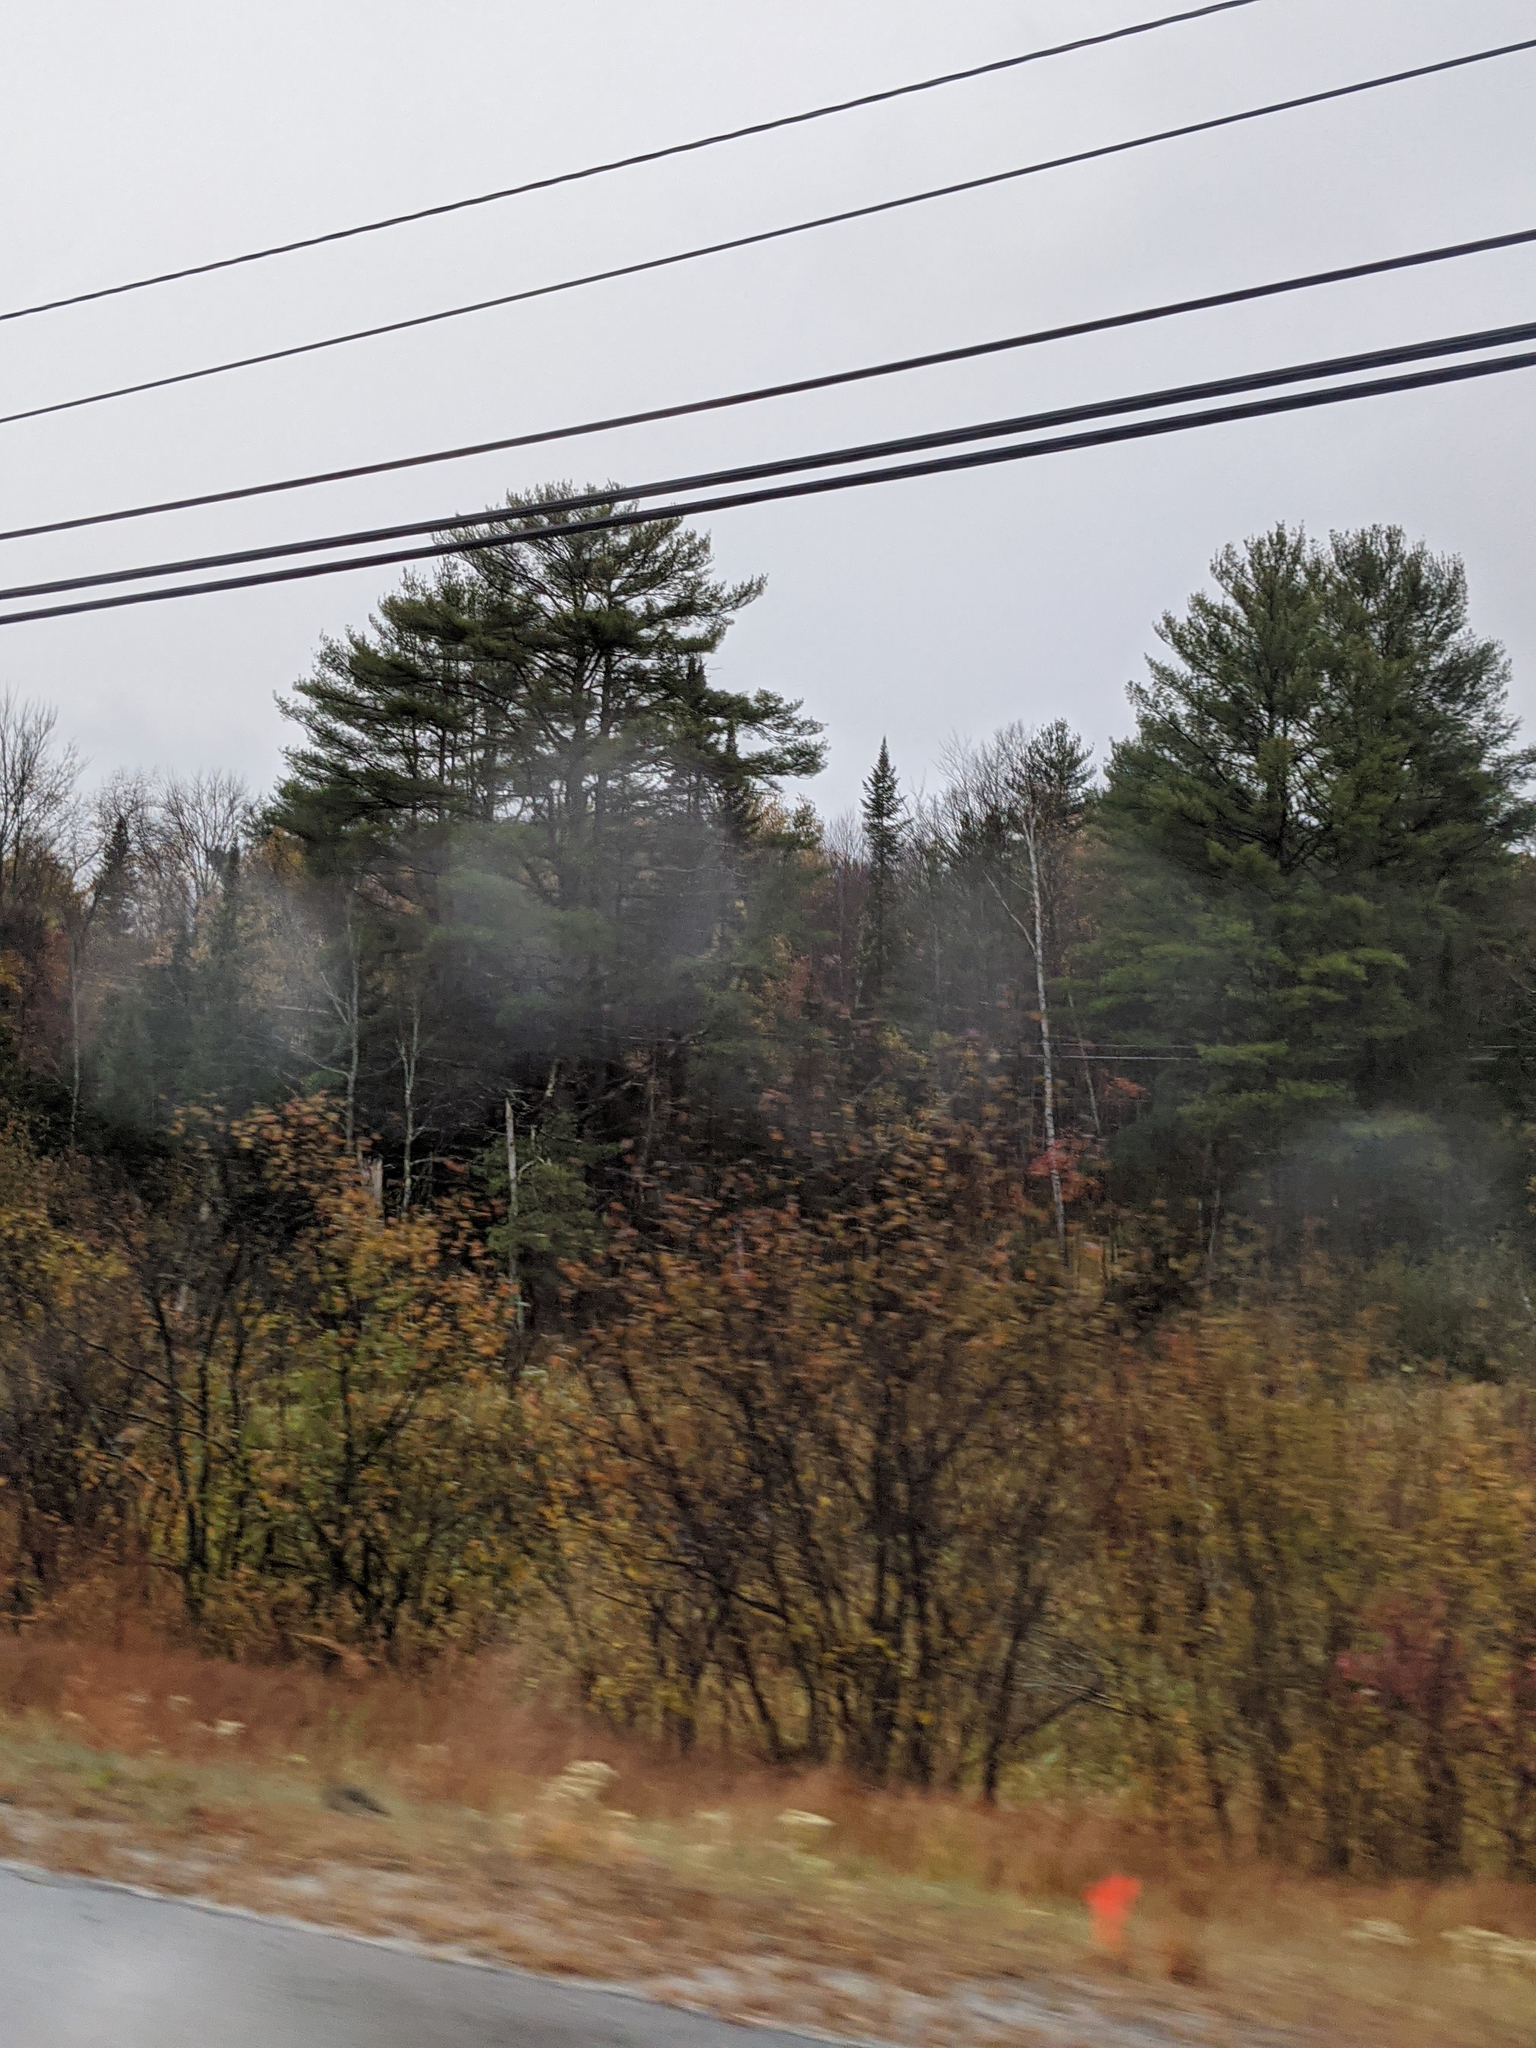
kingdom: Plantae
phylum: Tracheophyta
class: Pinopsida
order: Pinales
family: Pinaceae
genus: Pinus
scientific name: Pinus strobus
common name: Weymouth pine
